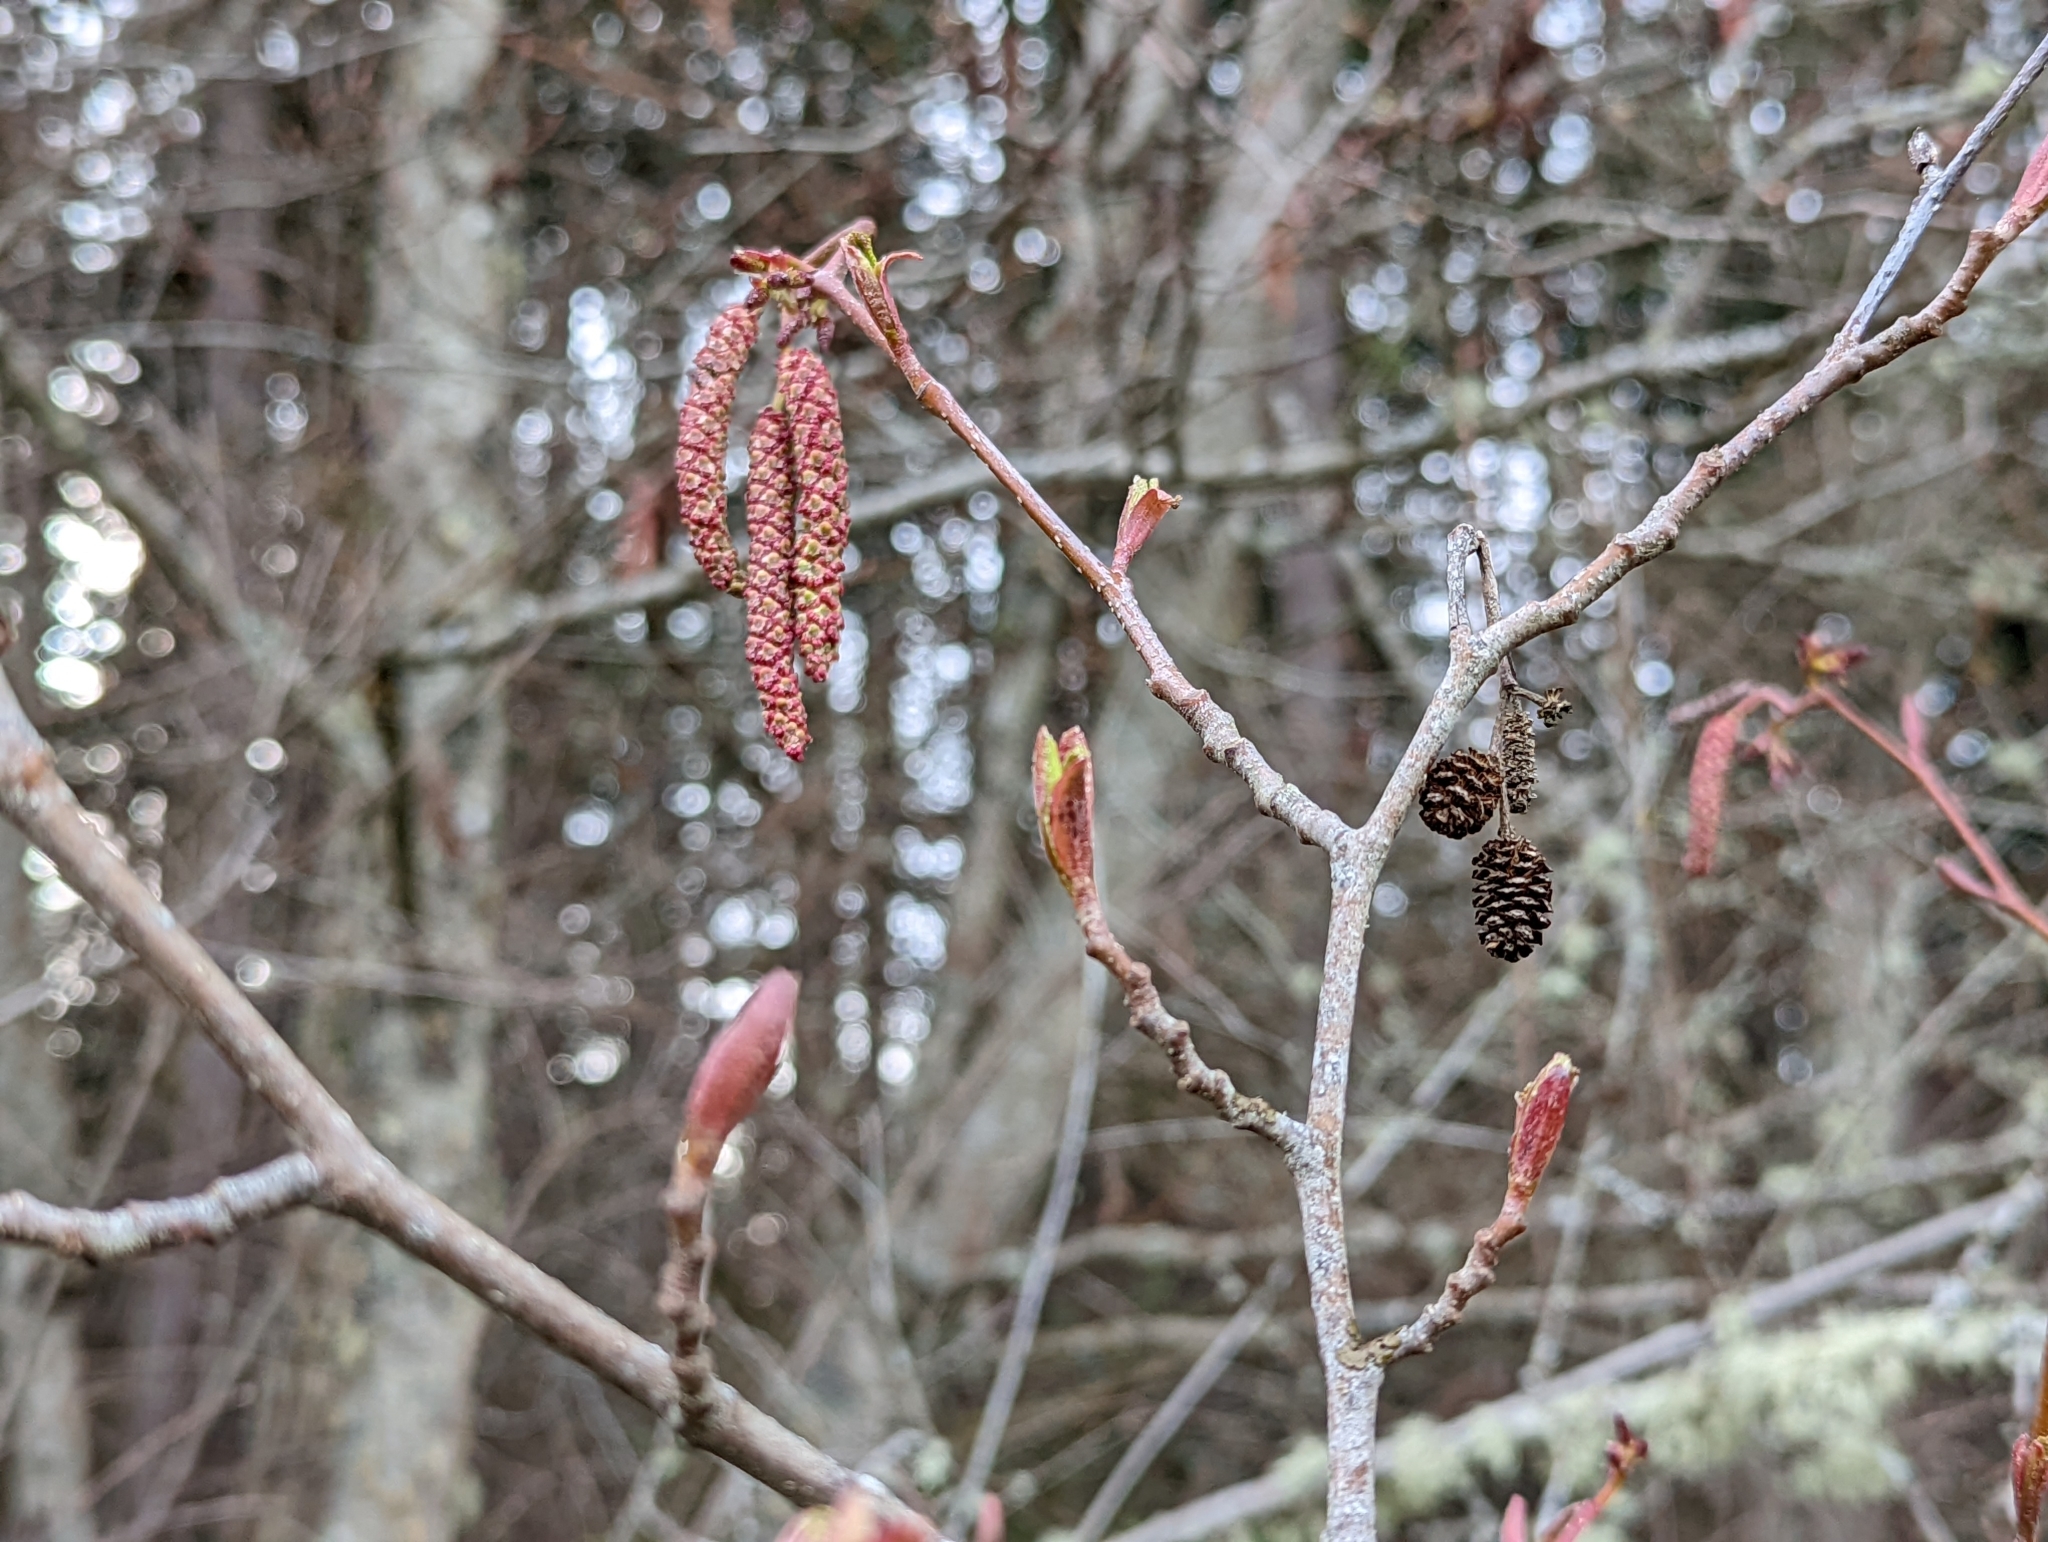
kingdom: Plantae
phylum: Tracheophyta
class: Magnoliopsida
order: Fagales
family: Betulaceae
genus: Alnus
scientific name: Alnus rubra
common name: Red alder
